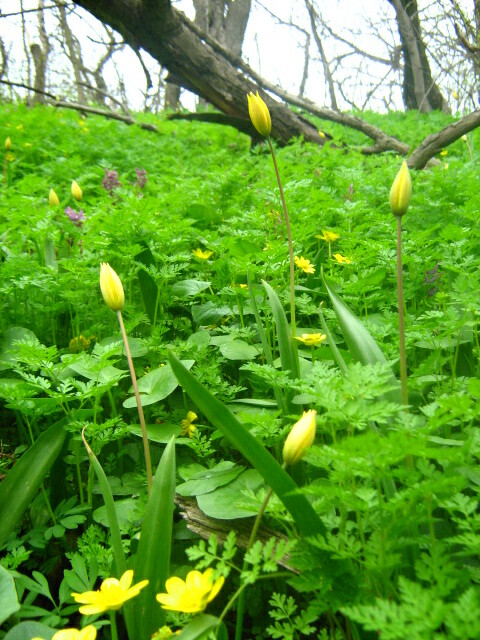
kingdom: Plantae
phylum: Tracheophyta
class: Liliopsida
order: Liliales
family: Liliaceae
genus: Tulipa
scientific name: Tulipa sylvestris
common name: Wild tulip
